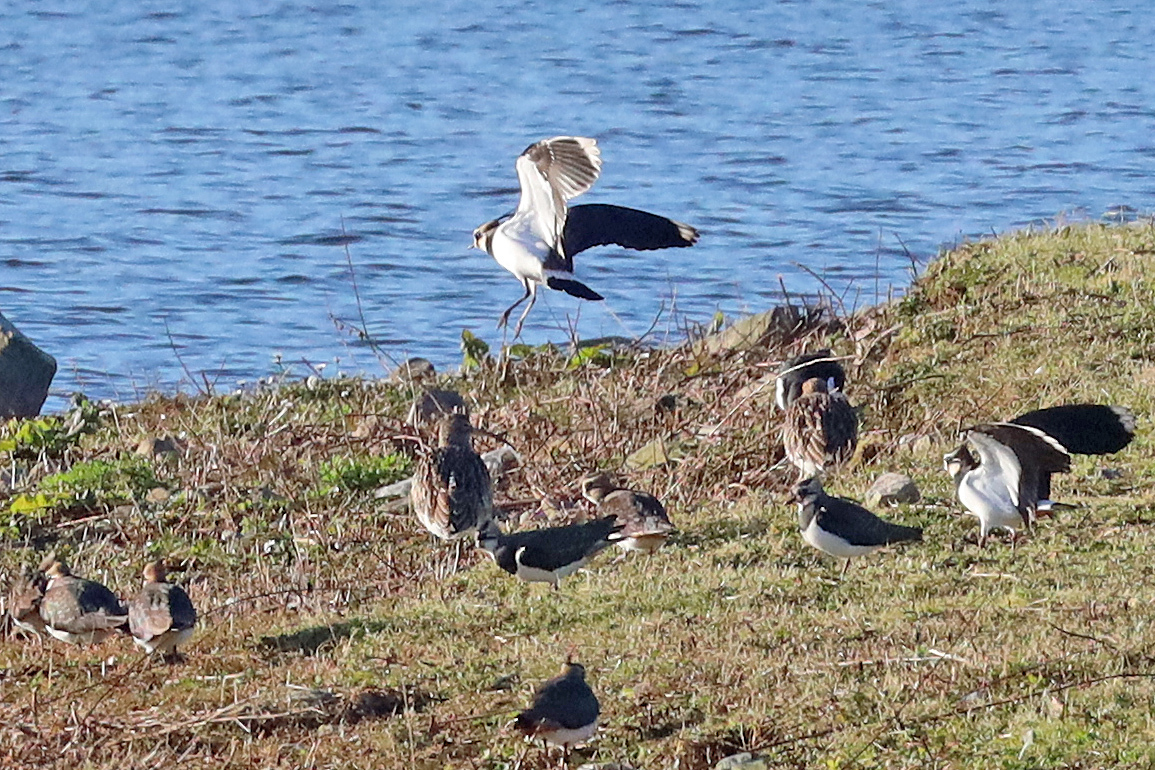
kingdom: Animalia
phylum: Chordata
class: Aves
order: Charadriiformes
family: Charadriidae
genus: Vanellus
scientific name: Vanellus vanellus
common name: Northern lapwing
